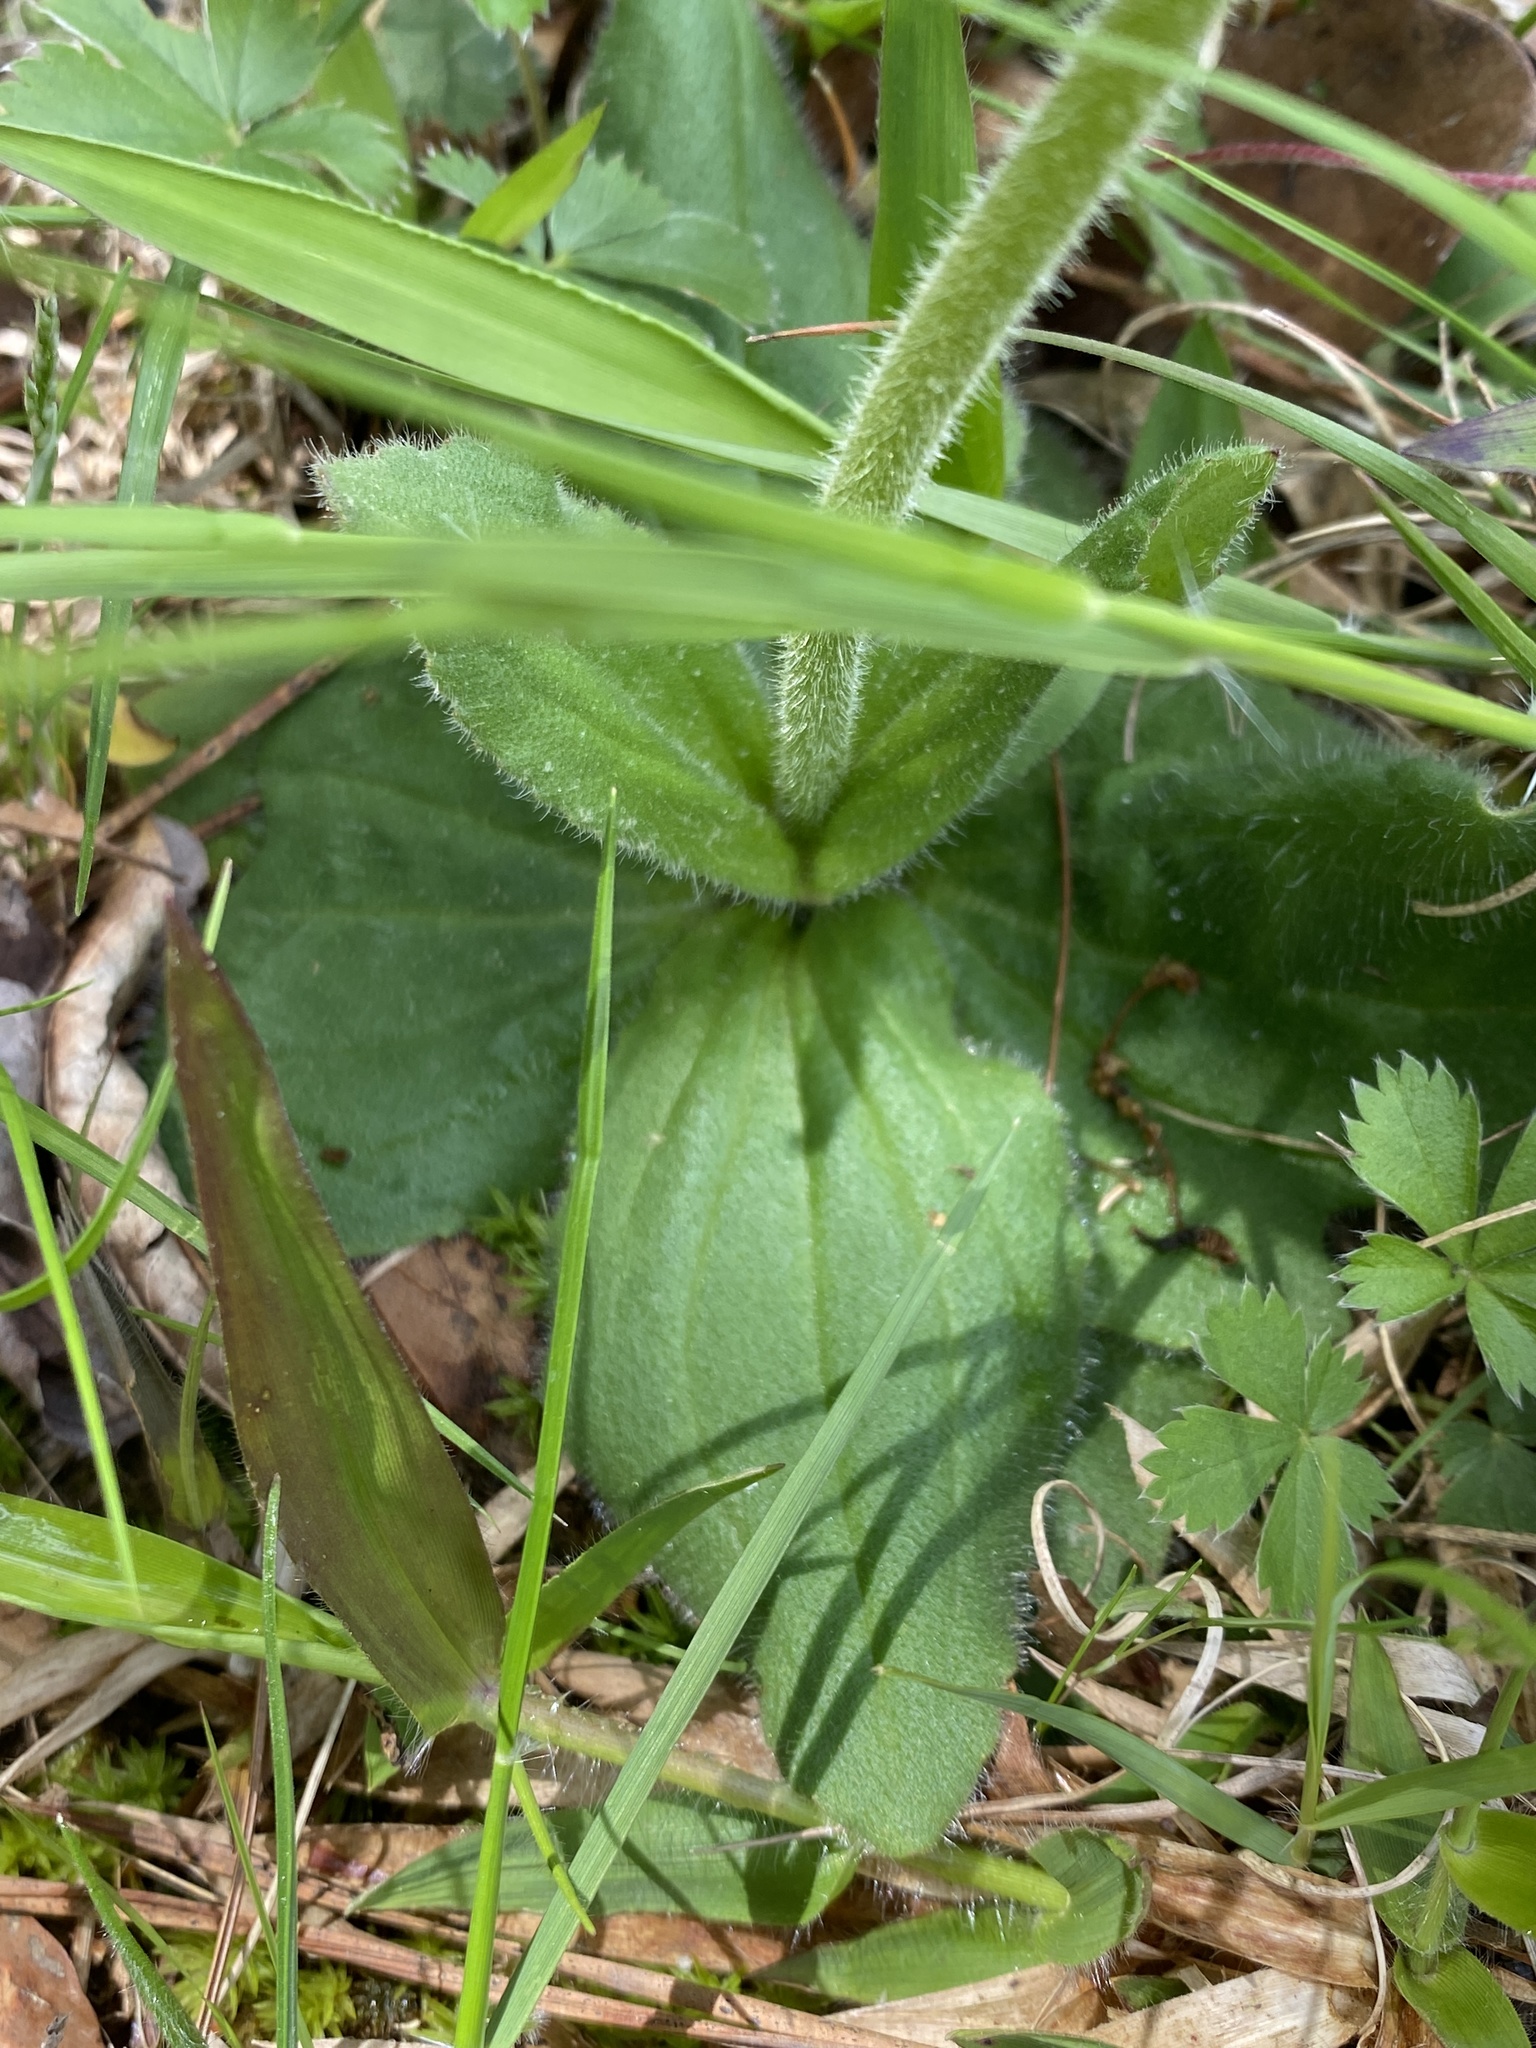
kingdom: Plantae
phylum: Tracheophyta
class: Magnoliopsida
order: Asterales
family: Asteraceae
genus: Arnica
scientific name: Arnica acaulis
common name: Common leopardbane
